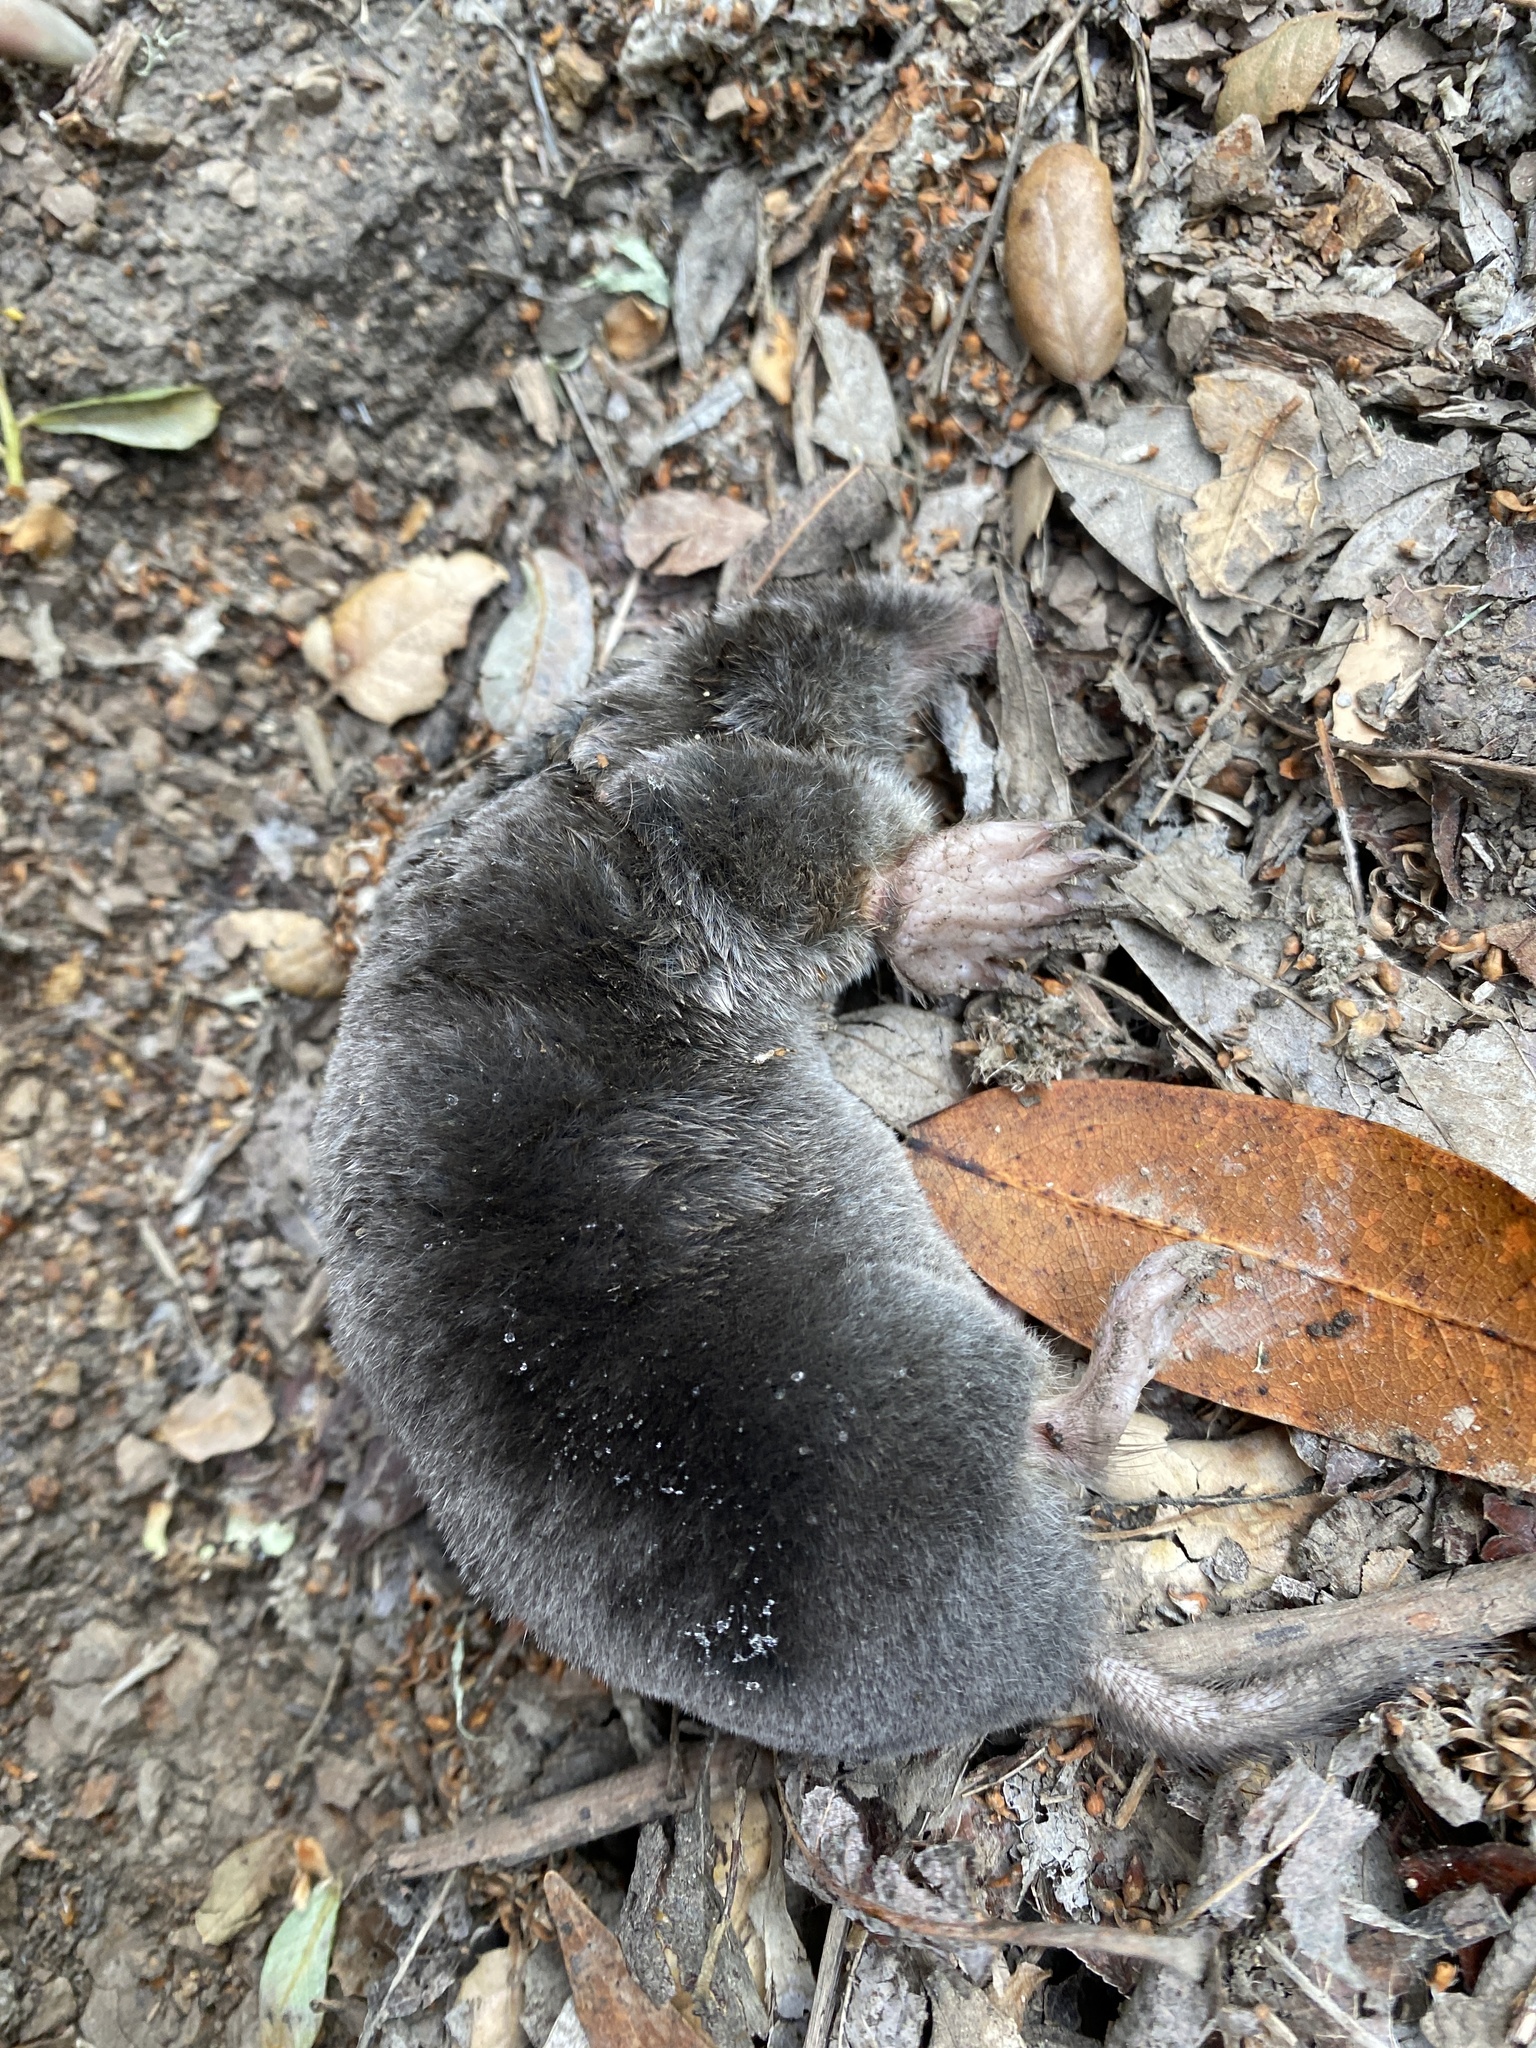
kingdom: Animalia
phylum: Chordata
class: Mammalia
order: Soricomorpha
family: Talpidae
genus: Scapanus
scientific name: Scapanus latimanus
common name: Broad-footed mole
